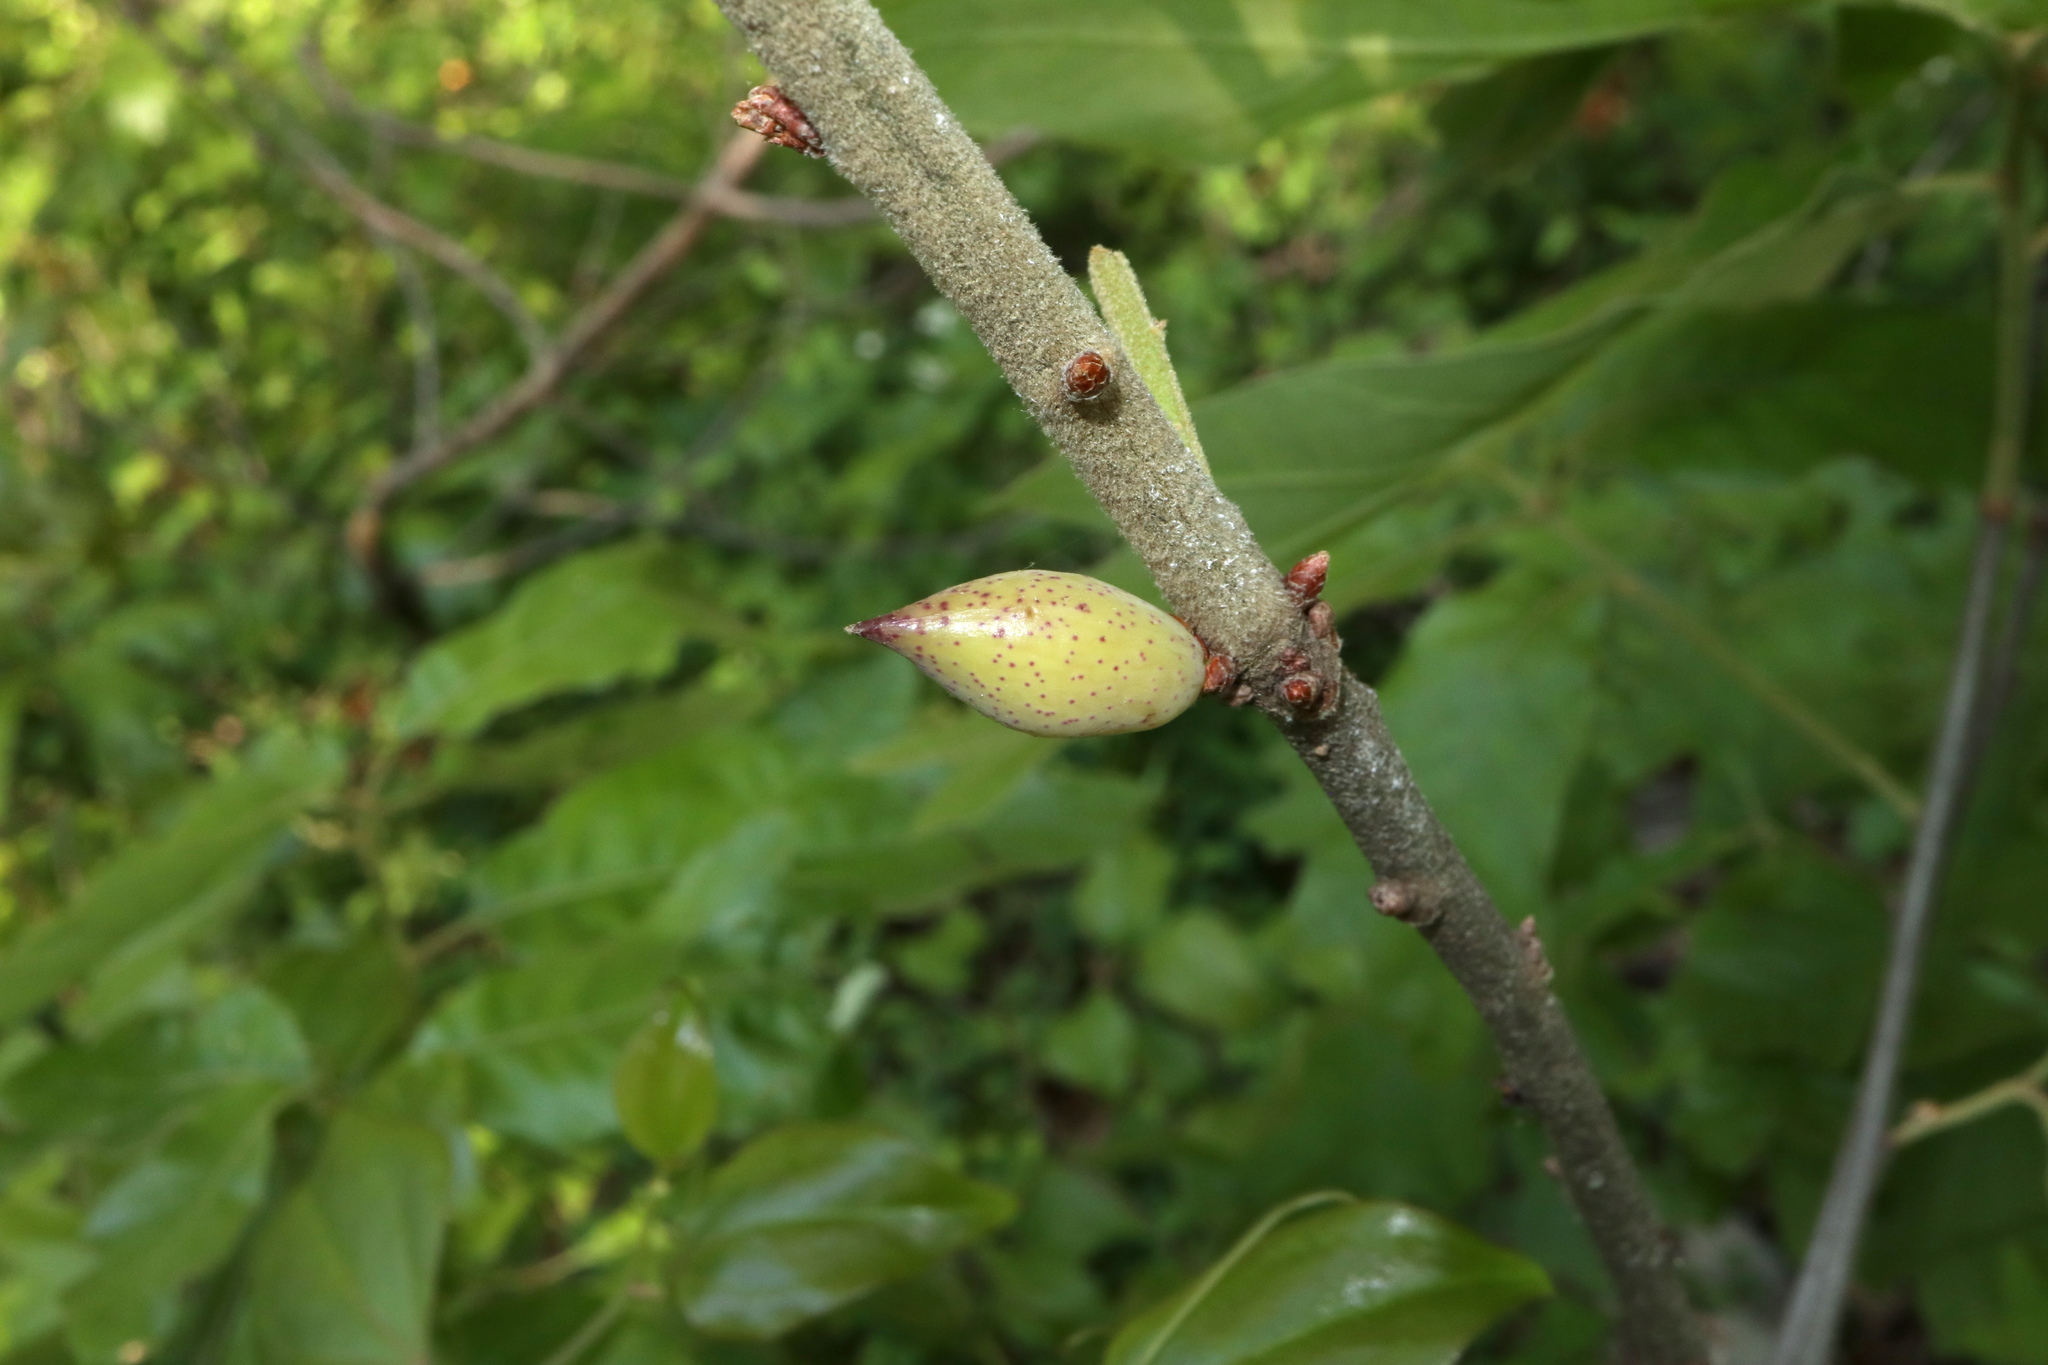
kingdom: Animalia
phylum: Arthropoda
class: Insecta
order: Hymenoptera
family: Cynipidae
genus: Amphibolips
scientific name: Amphibolips
